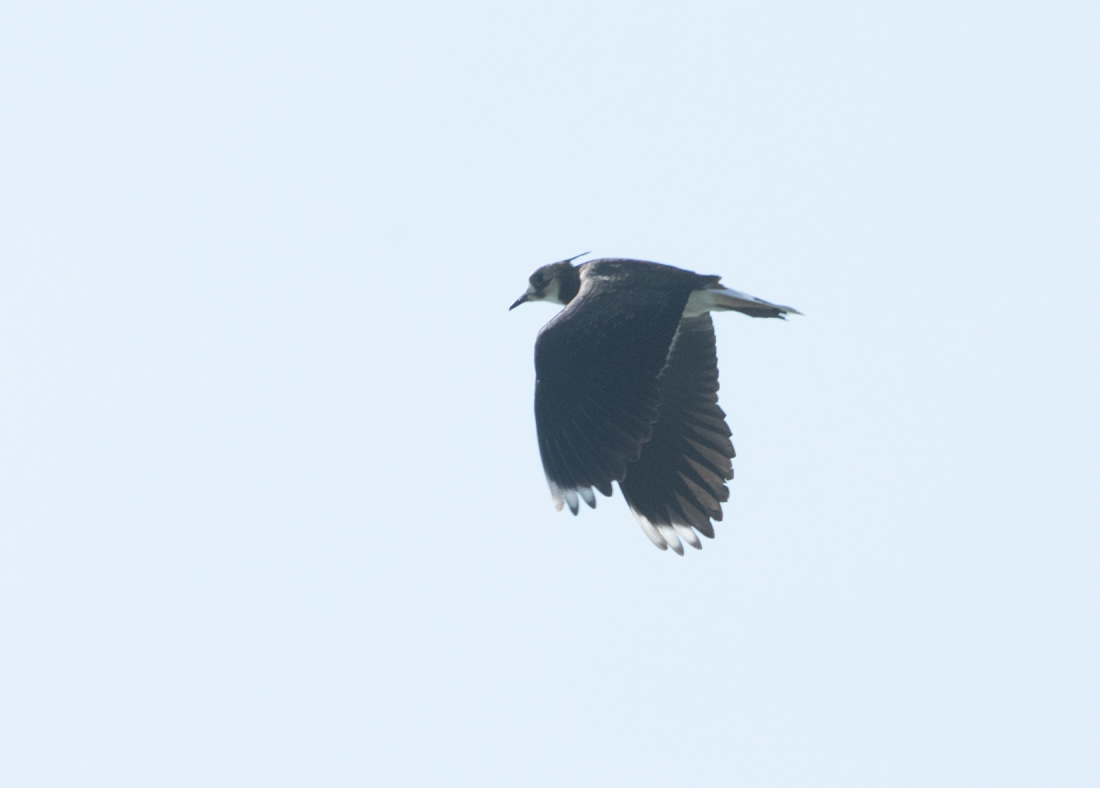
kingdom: Animalia
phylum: Chordata
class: Aves
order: Charadriiformes
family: Charadriidae
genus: Vanellus
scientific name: Vanellus vanellus
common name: Northern lapwing
